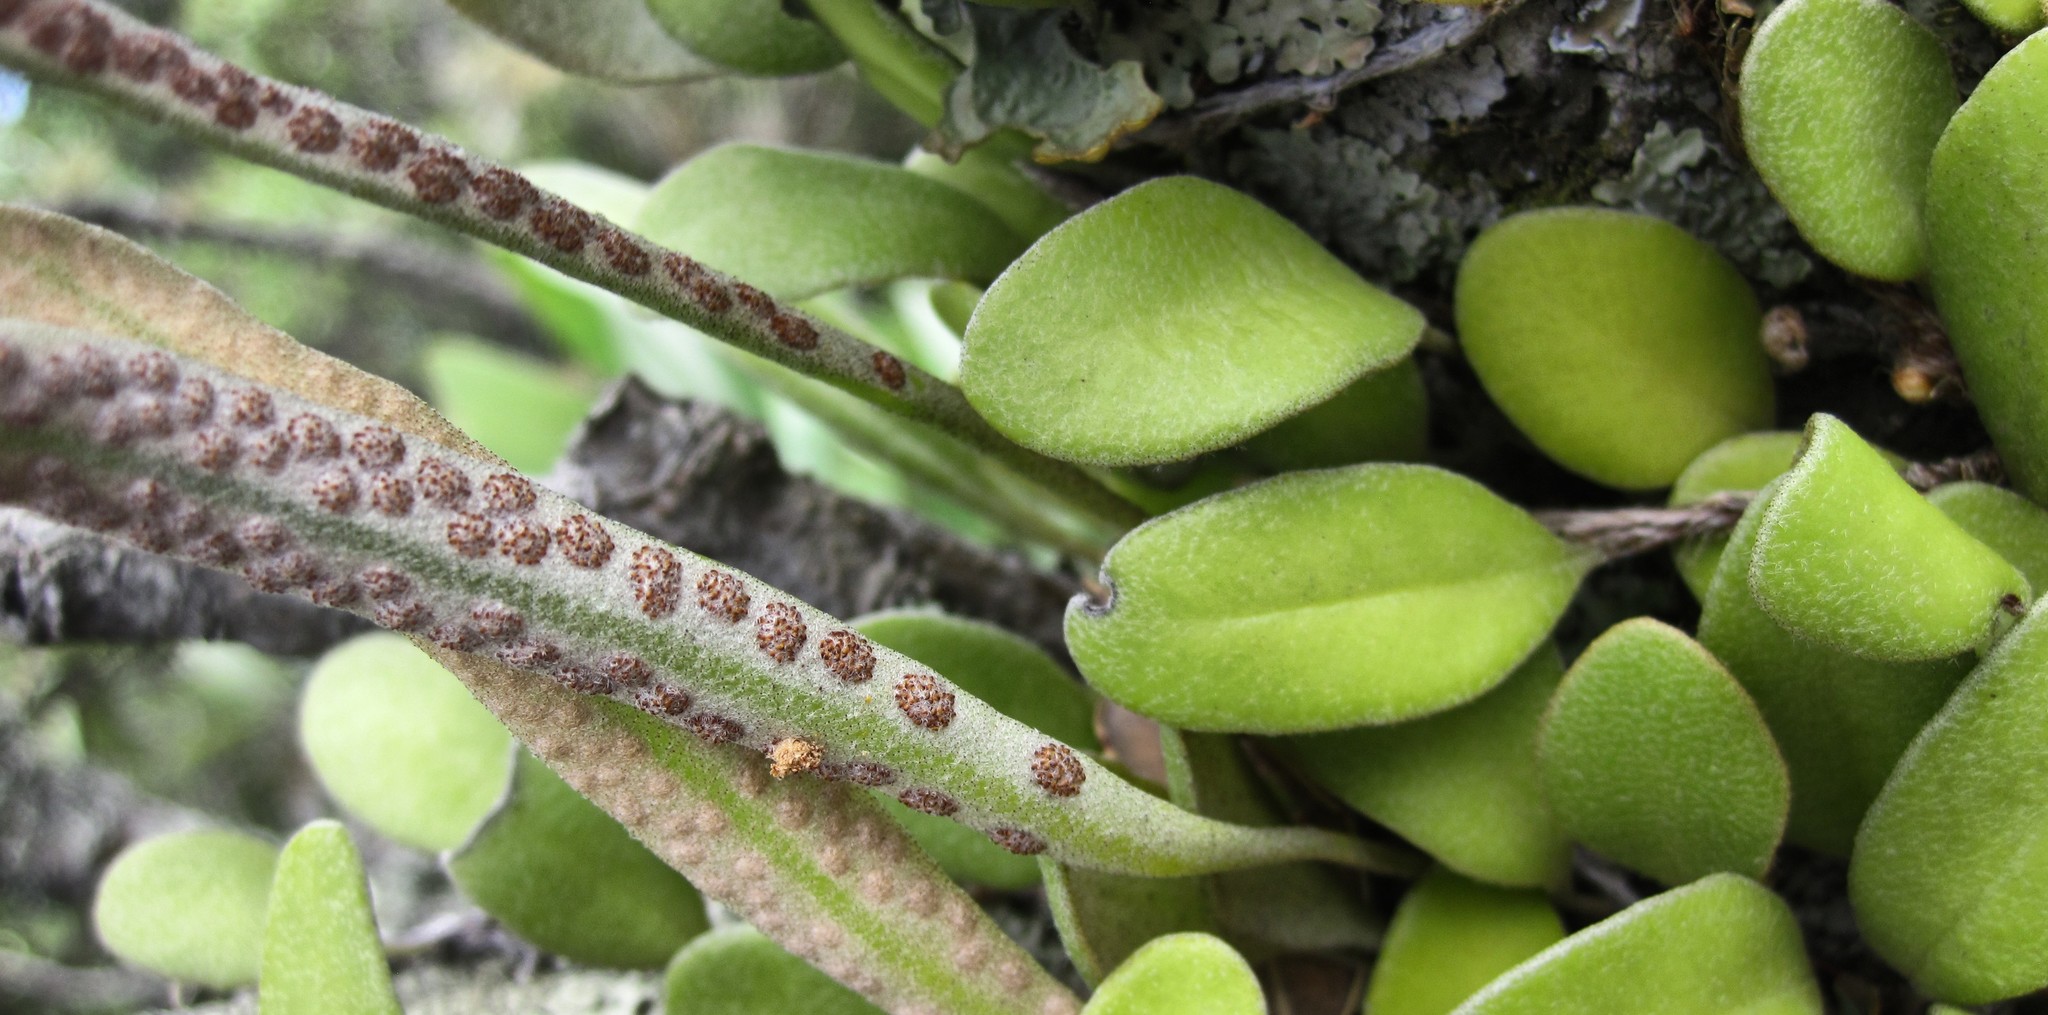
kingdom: Plantae
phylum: Tracheophyta
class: Polypodiopsida
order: Polypodiales
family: Polypodiaceae
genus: Pyrrosia
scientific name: Pyrrosia eleagnifolia
